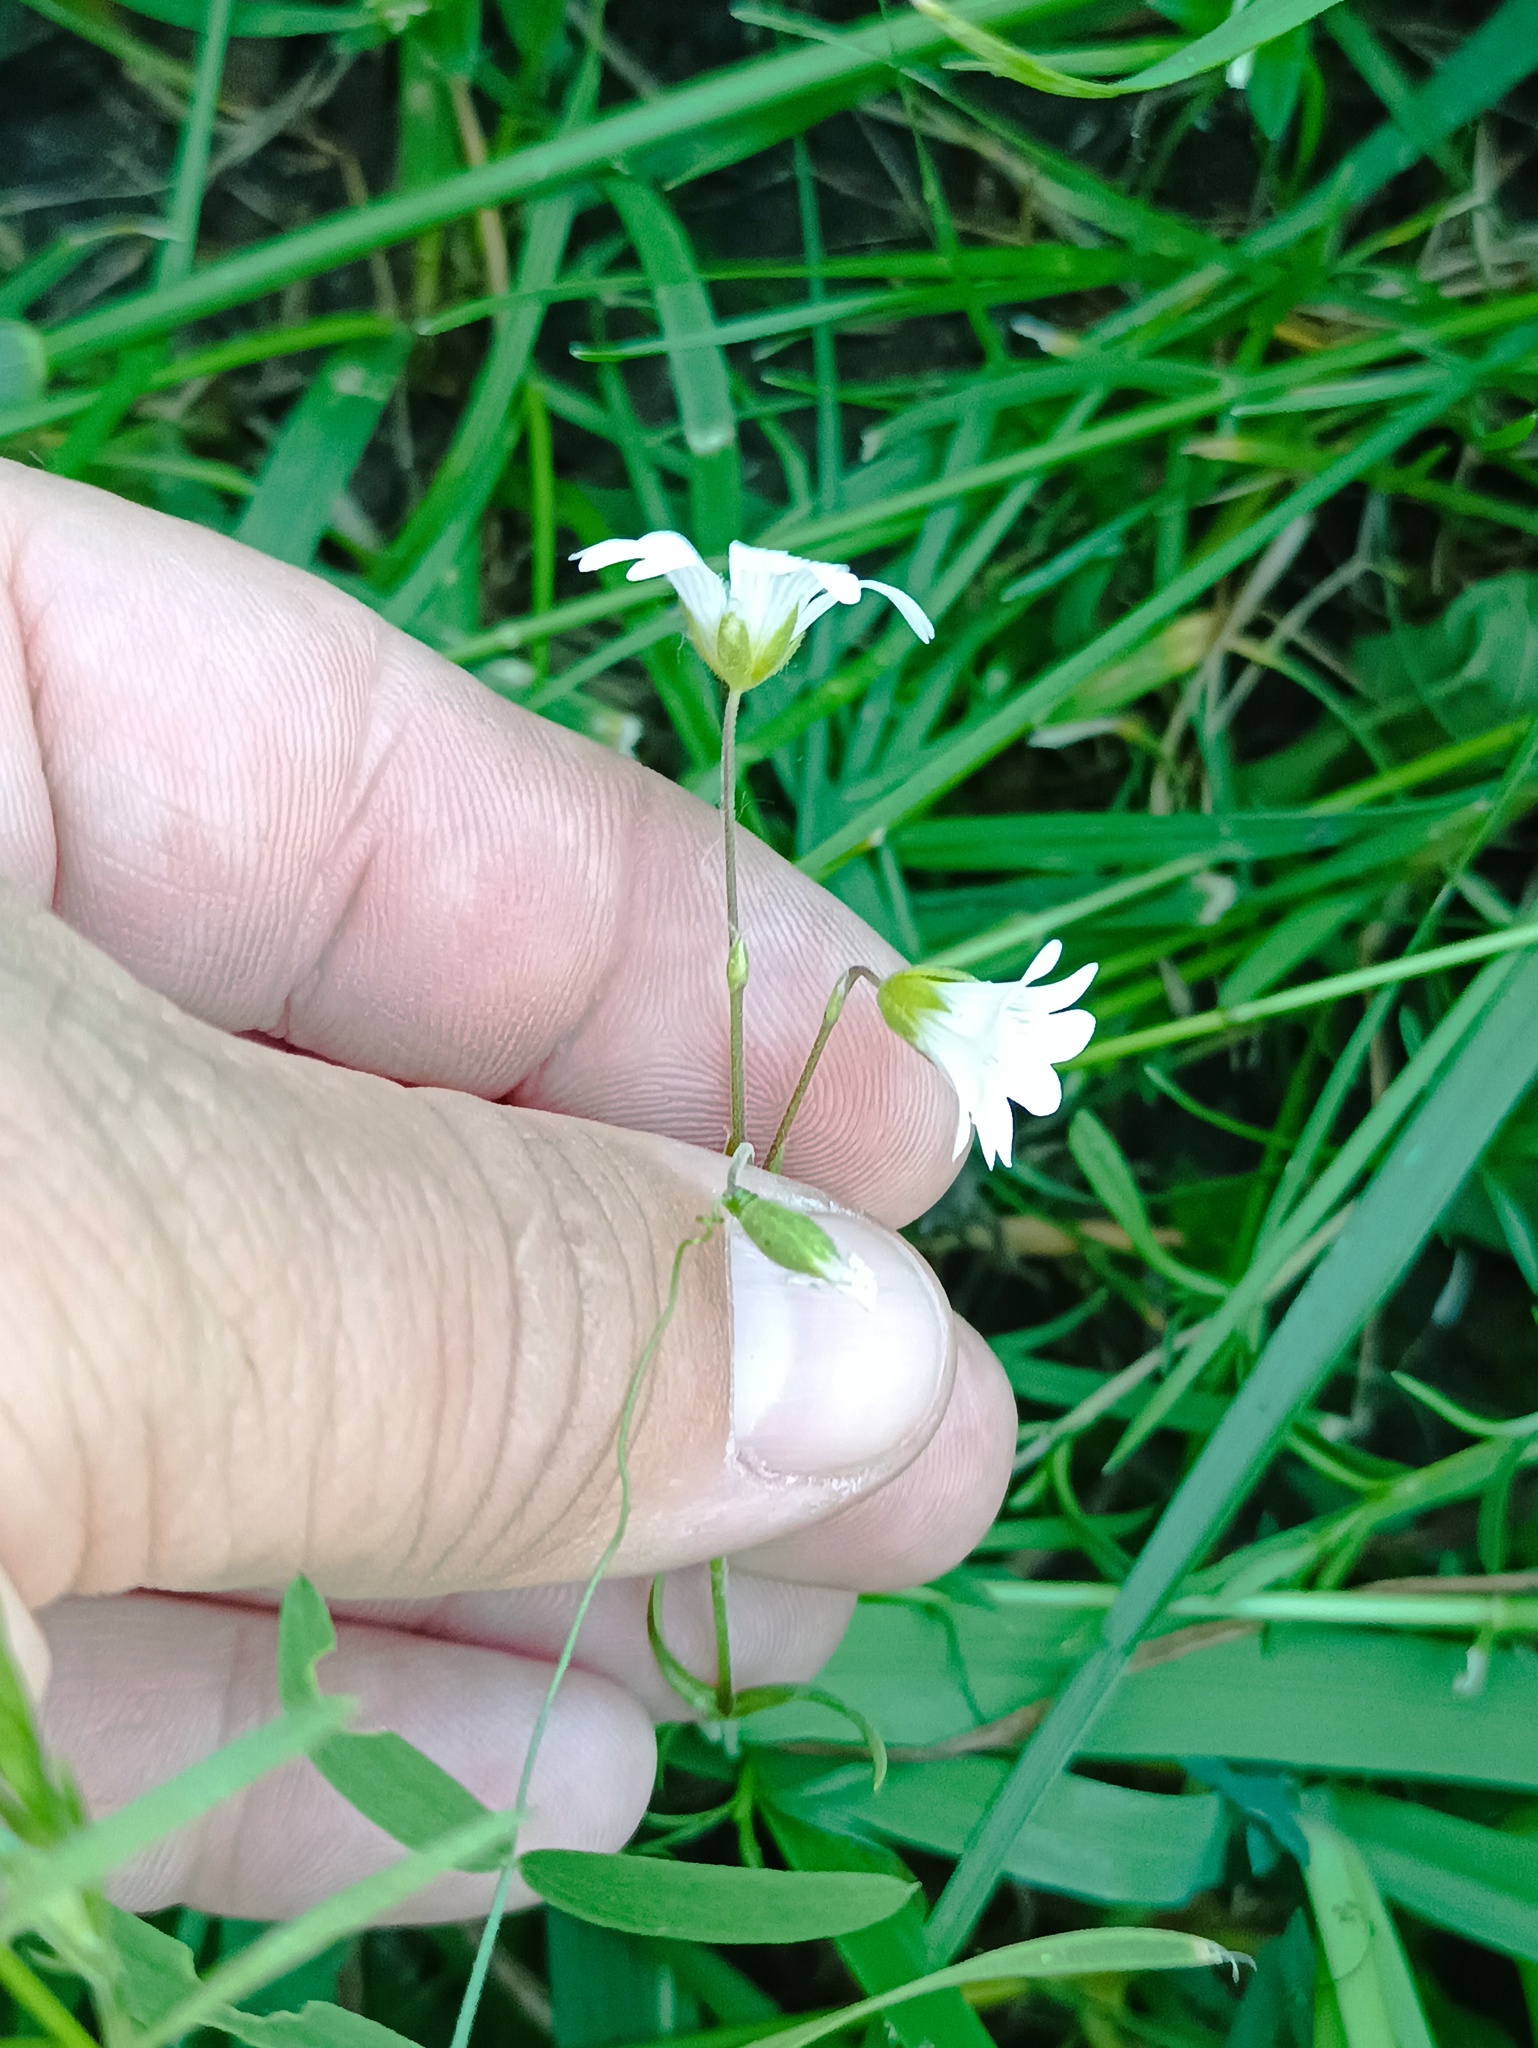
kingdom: Plantae
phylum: Tracheophyta
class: Magnoliopsida
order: Caryophyllales
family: Caryophyllaceae
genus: Cerastium
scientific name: Cerastium arvense
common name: Field mouse-ear
